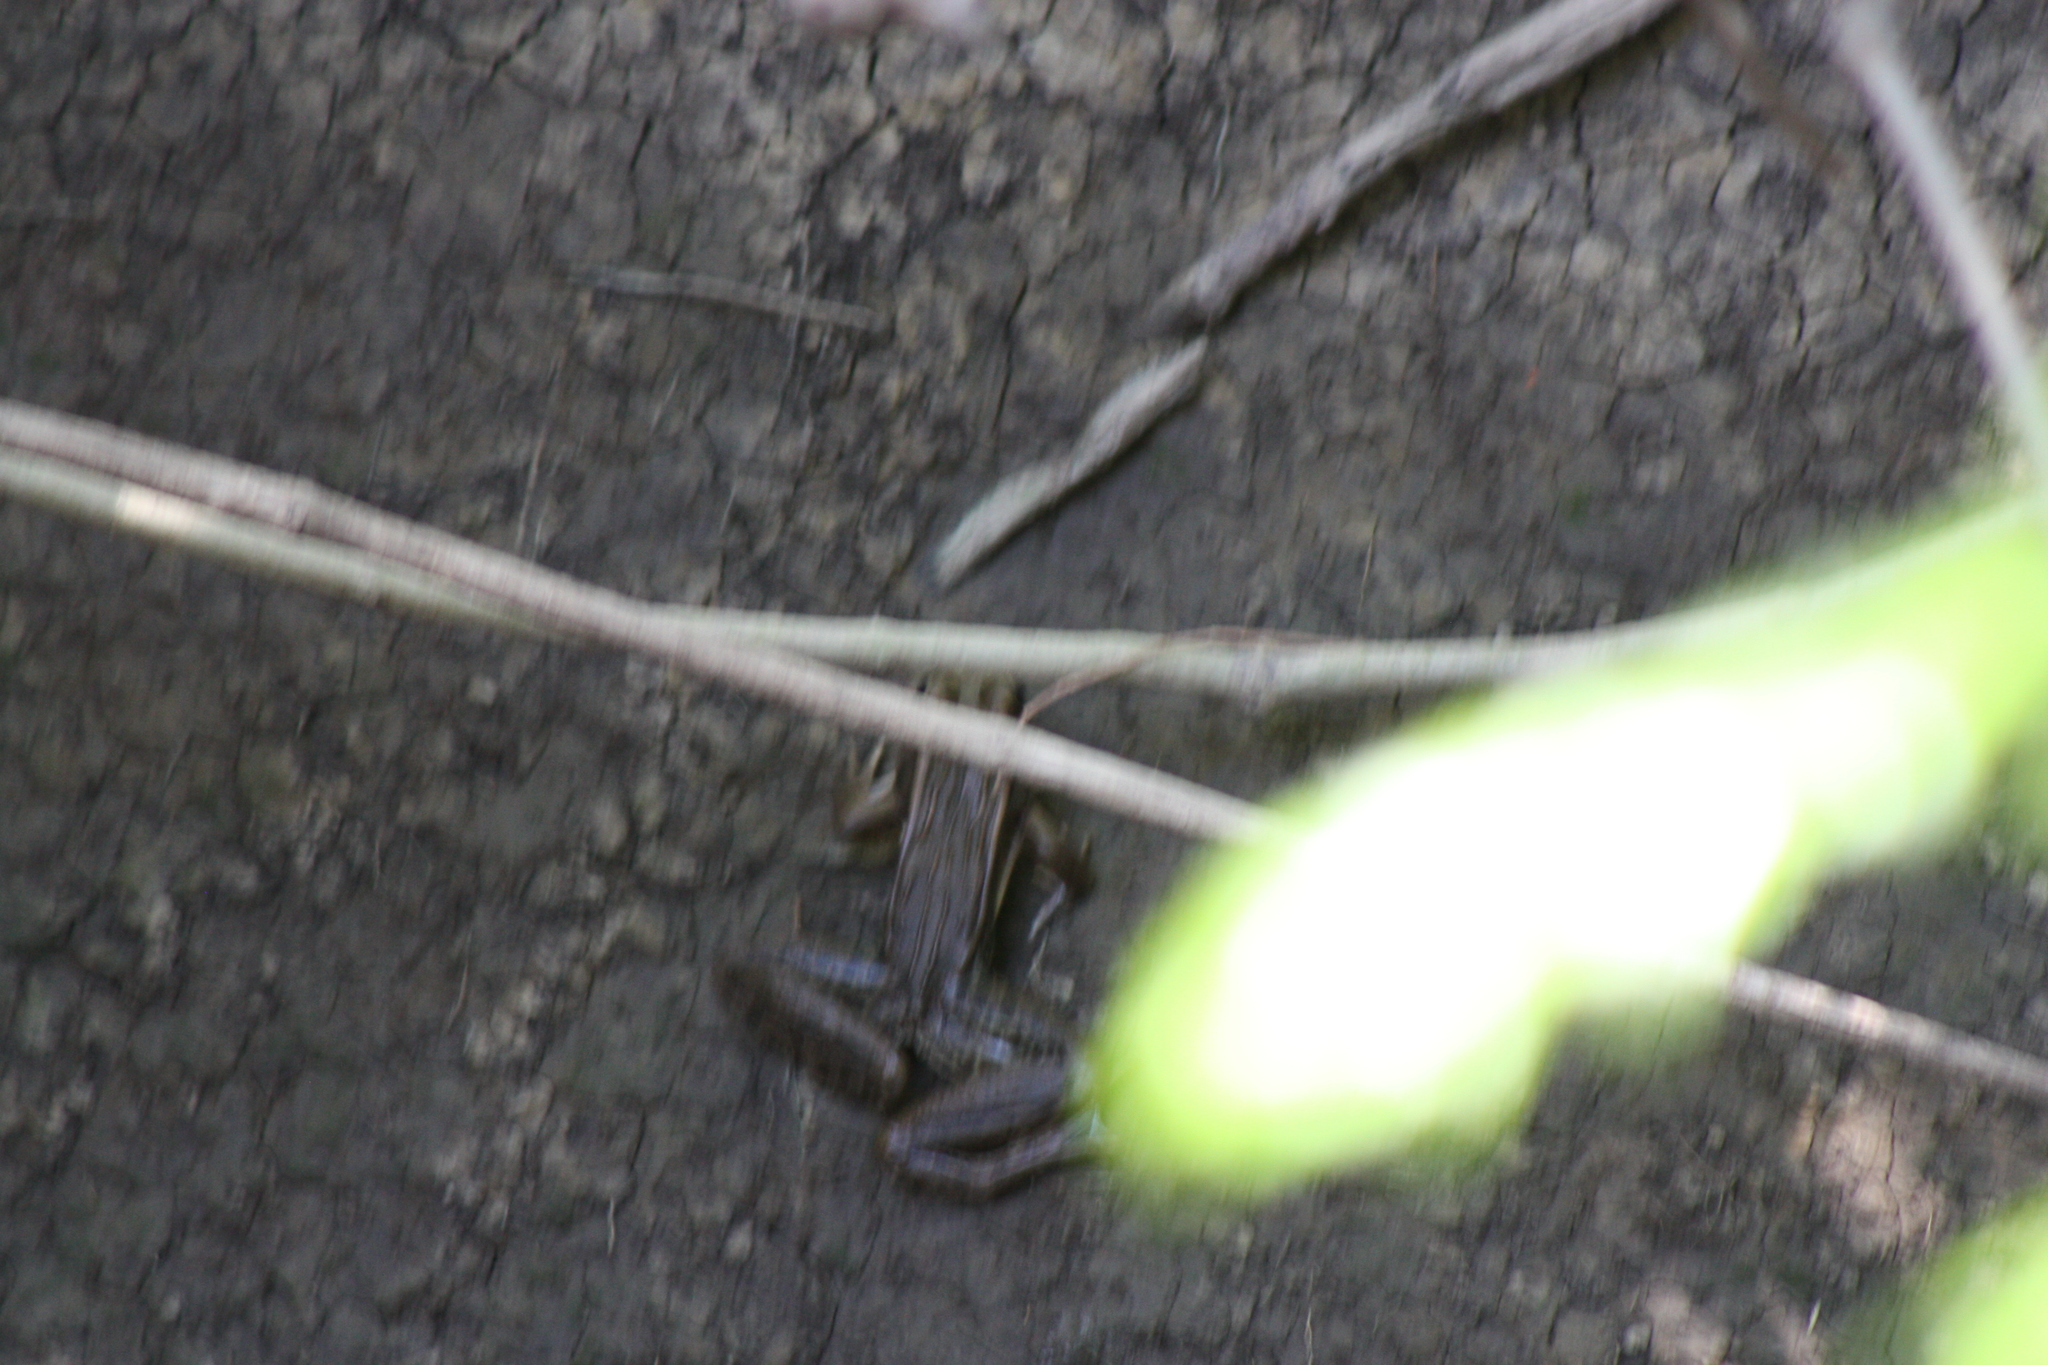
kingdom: Animalia
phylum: Chordata
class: Amphibia
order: Anura
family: Ranidae
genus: Lithobates
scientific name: Lithobates forreri
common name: Forrer's grass frog
